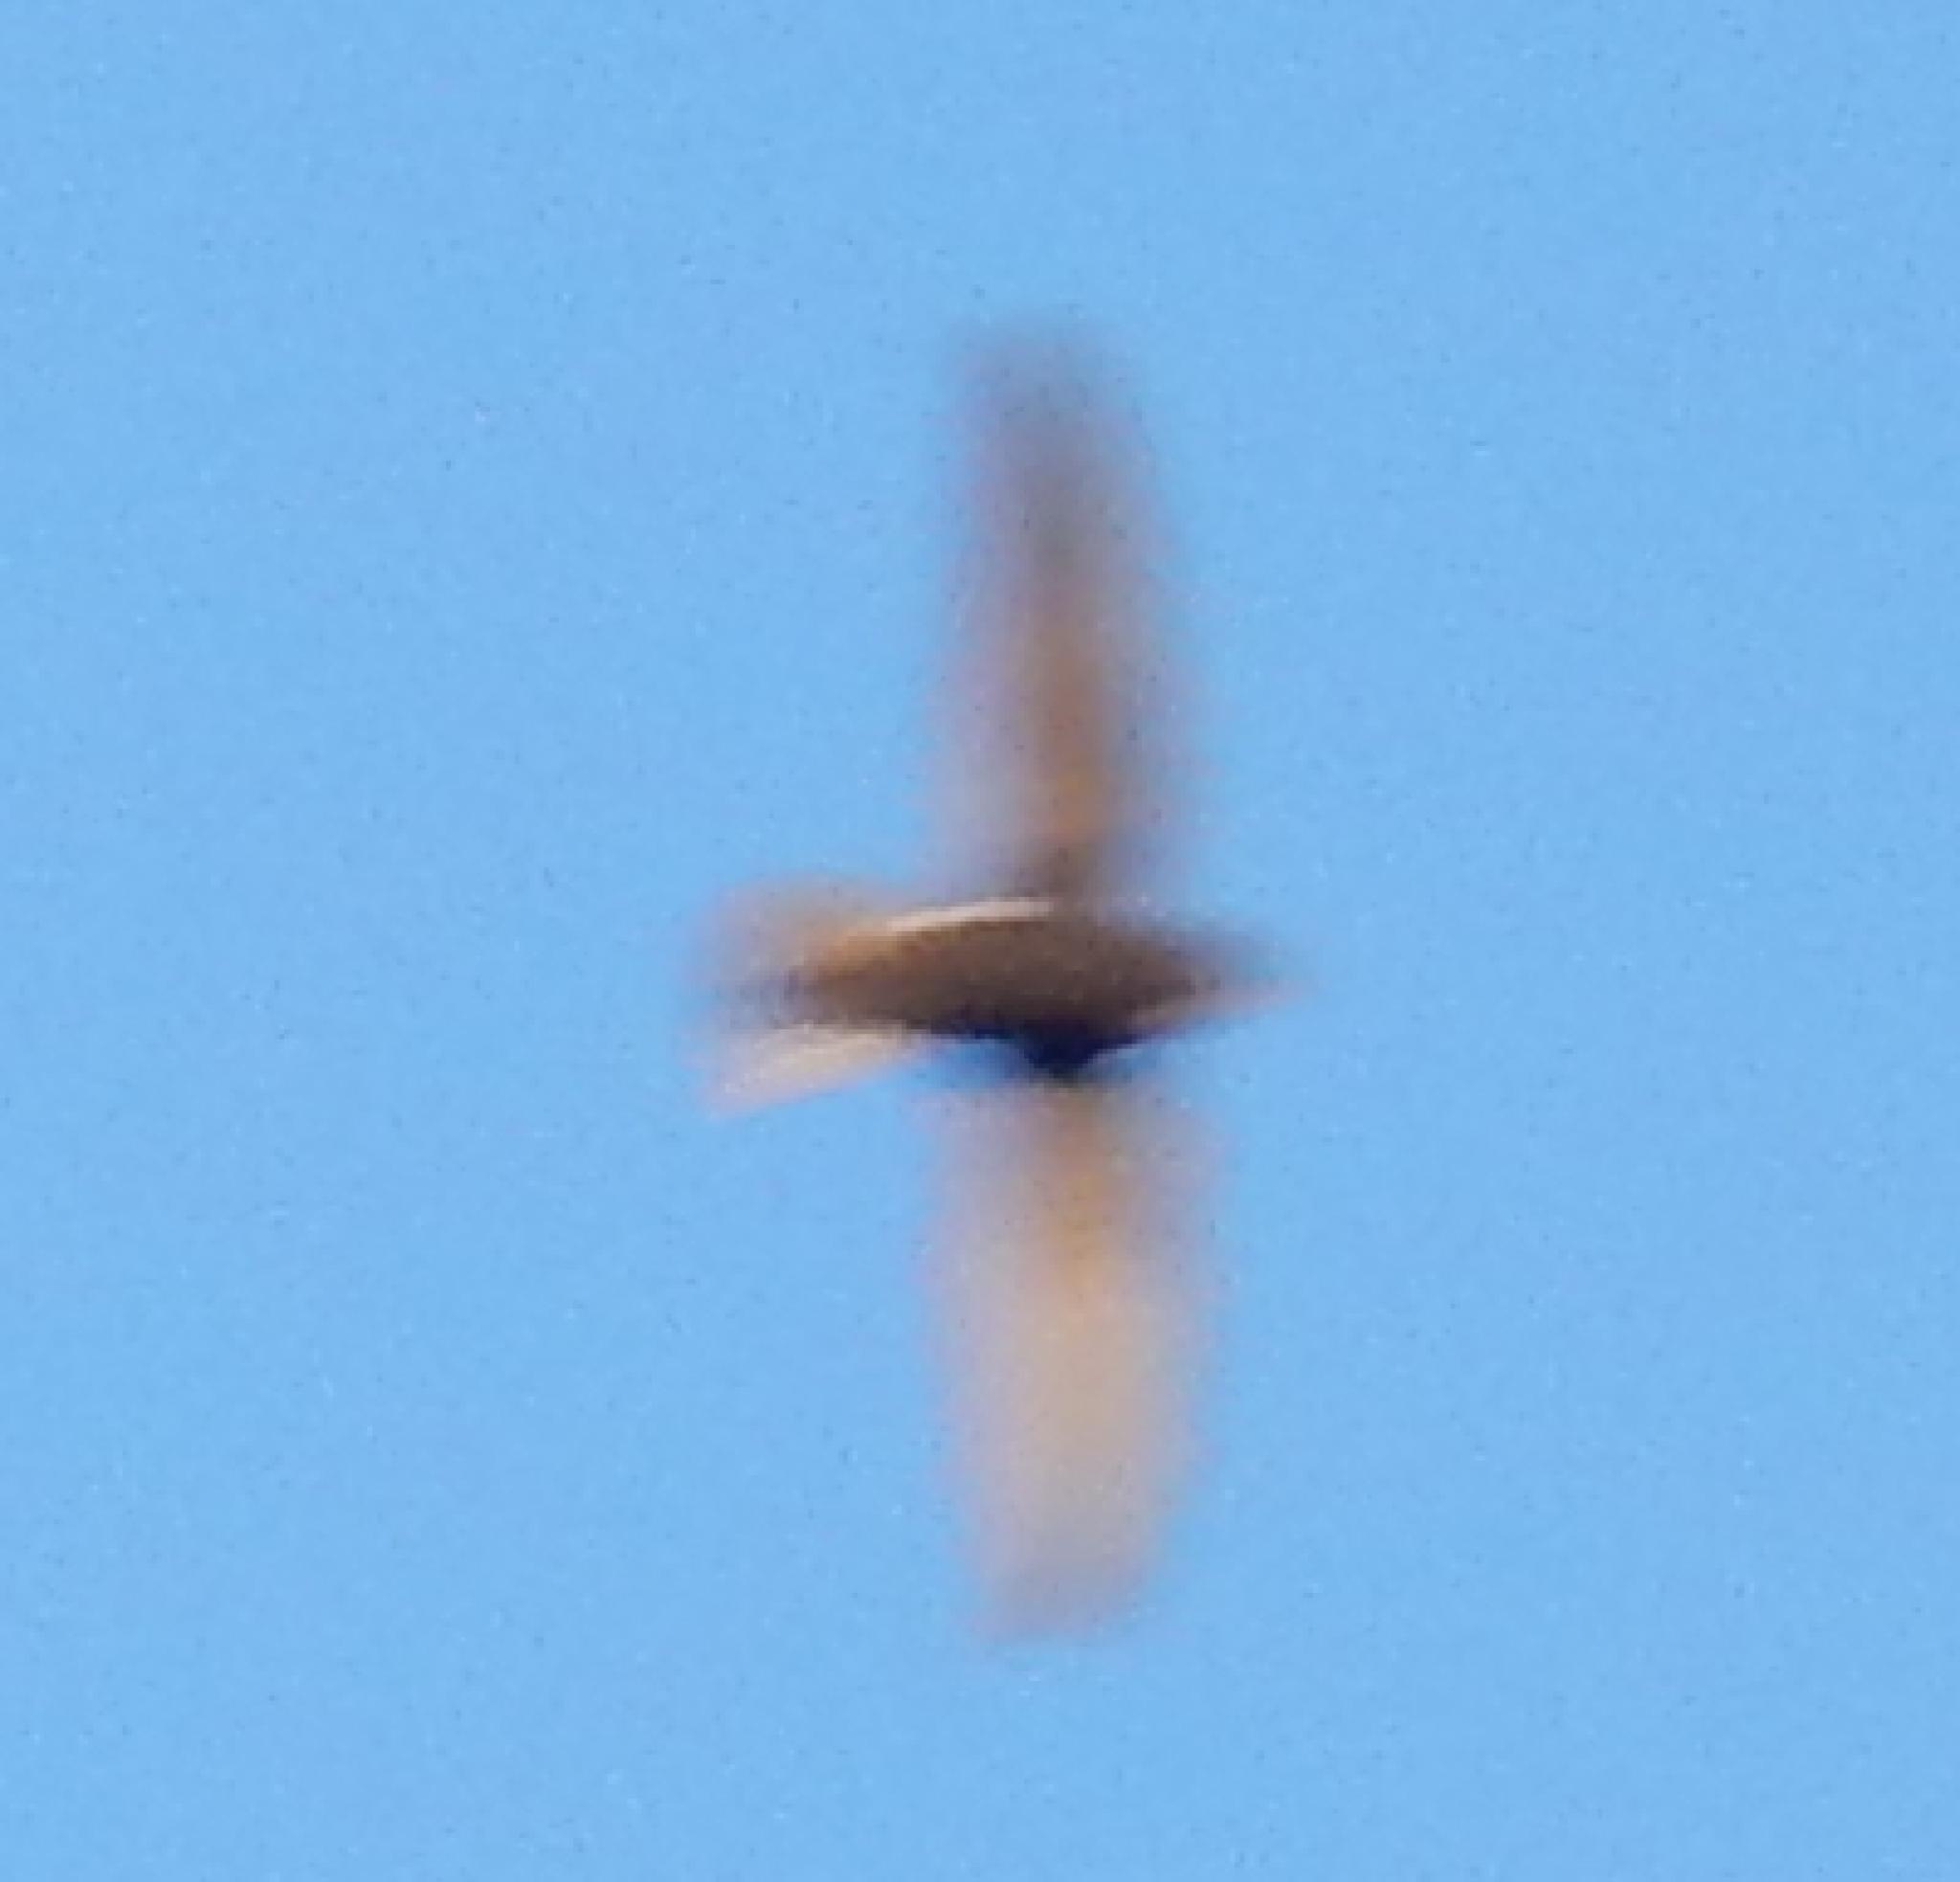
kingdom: Animalia
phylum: Chordata
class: Aves
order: Apodiformes
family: Apodidae
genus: Apus
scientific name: Apus affinis
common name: Little swift
